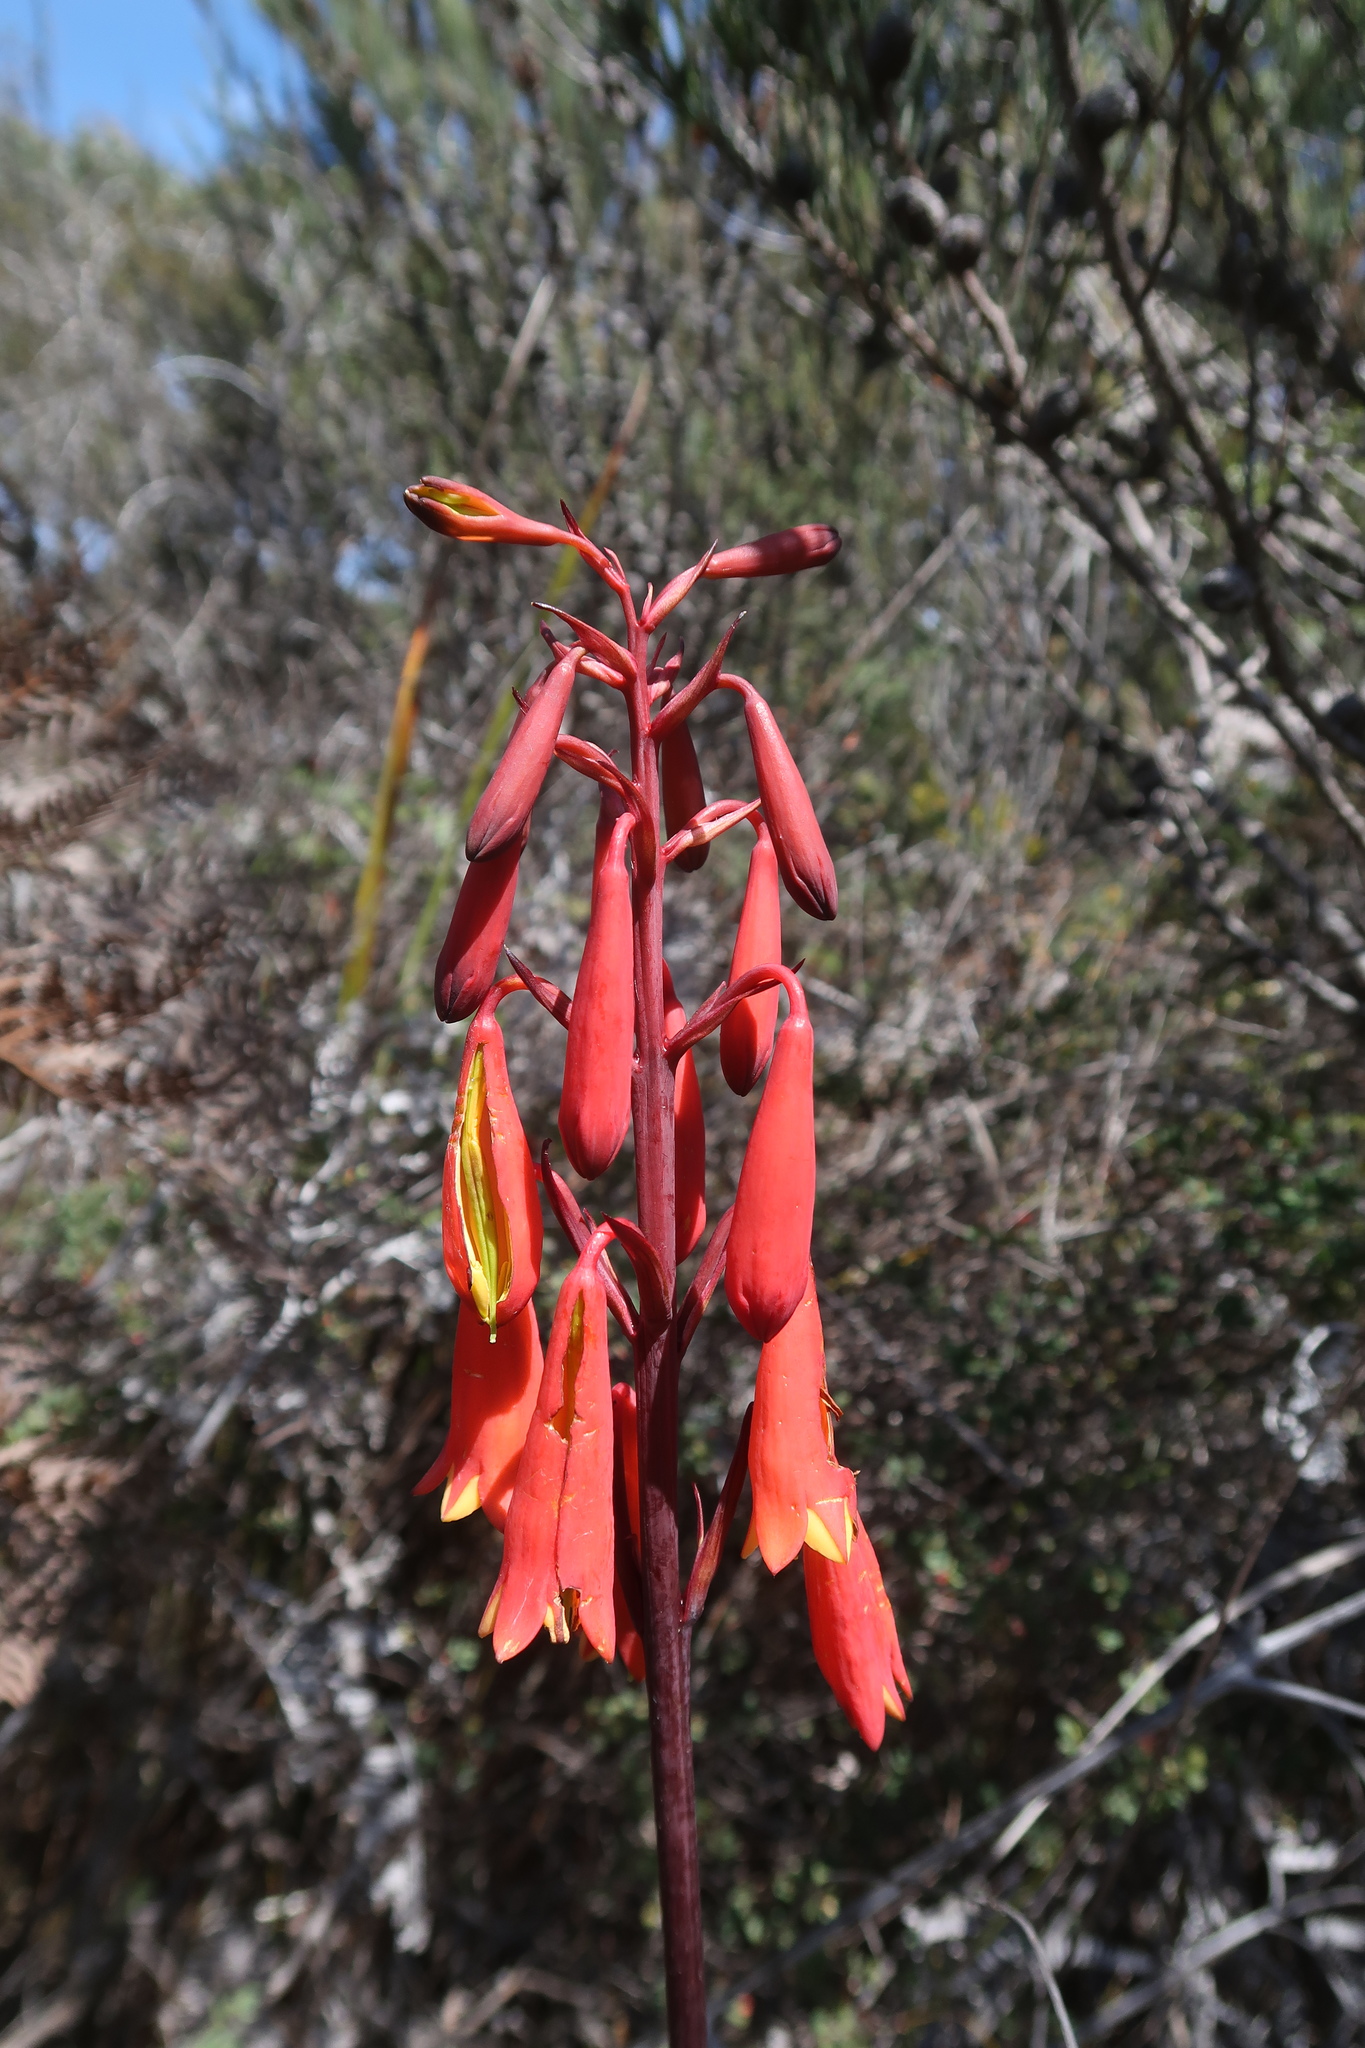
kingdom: Plantae
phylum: Tracheophyta
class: Liliopsida
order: Asparagales
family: Blandfordiaceae
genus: Blandfordia
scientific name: Blandfordia punicea
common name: Tasmanian christmas-bell
